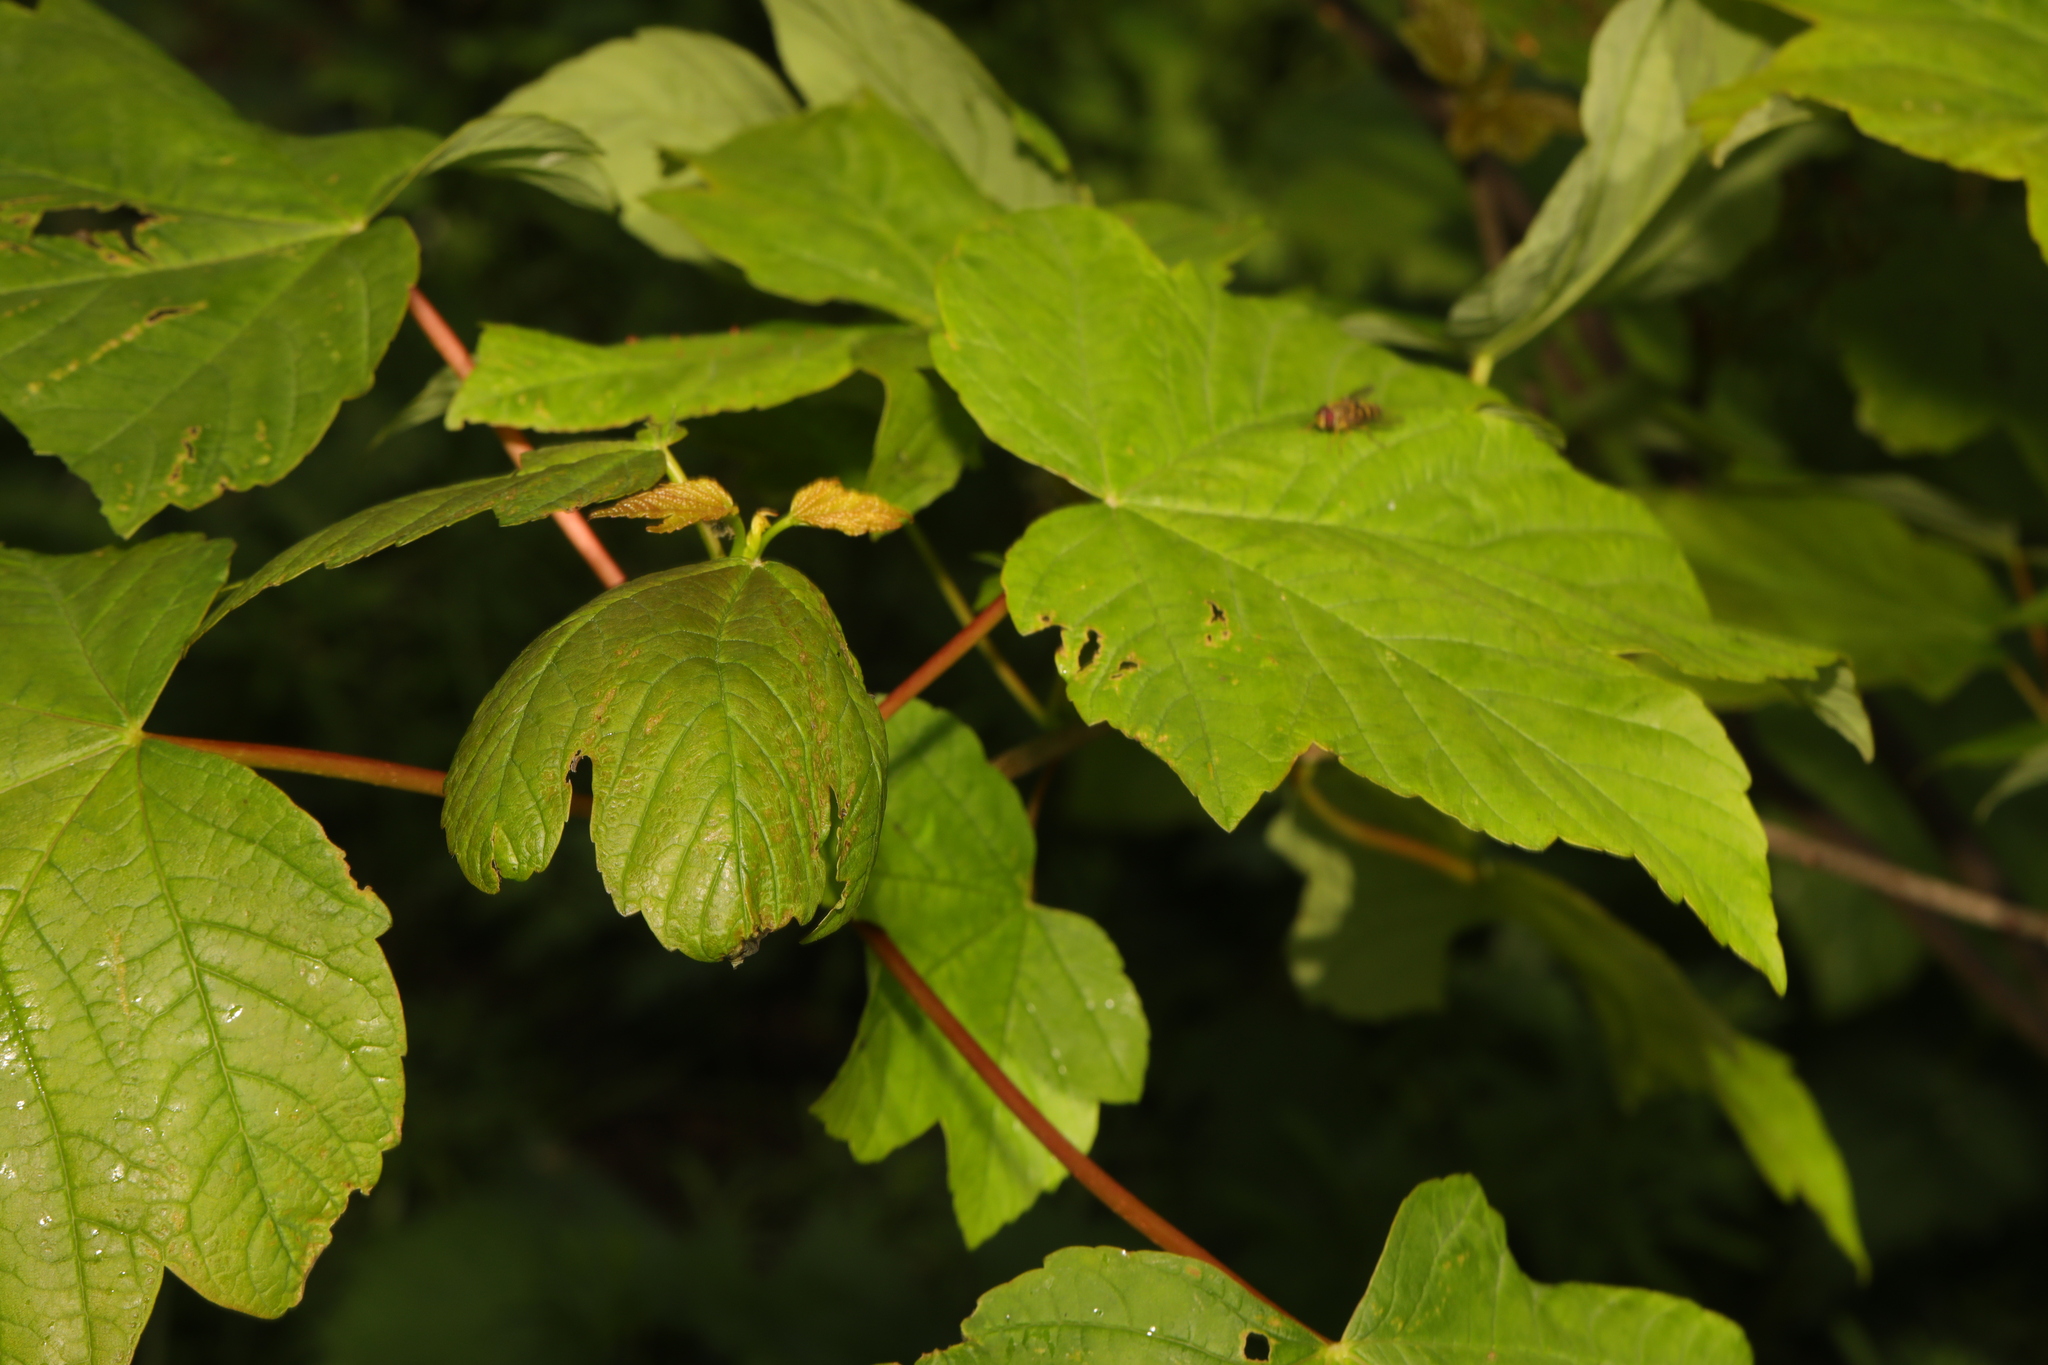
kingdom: Plantae
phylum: Tracheophyta
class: Magnoliopsida
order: Sapindales
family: Sapindaceae
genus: Acer
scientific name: Acer pseudoplatanus
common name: Sycamore
